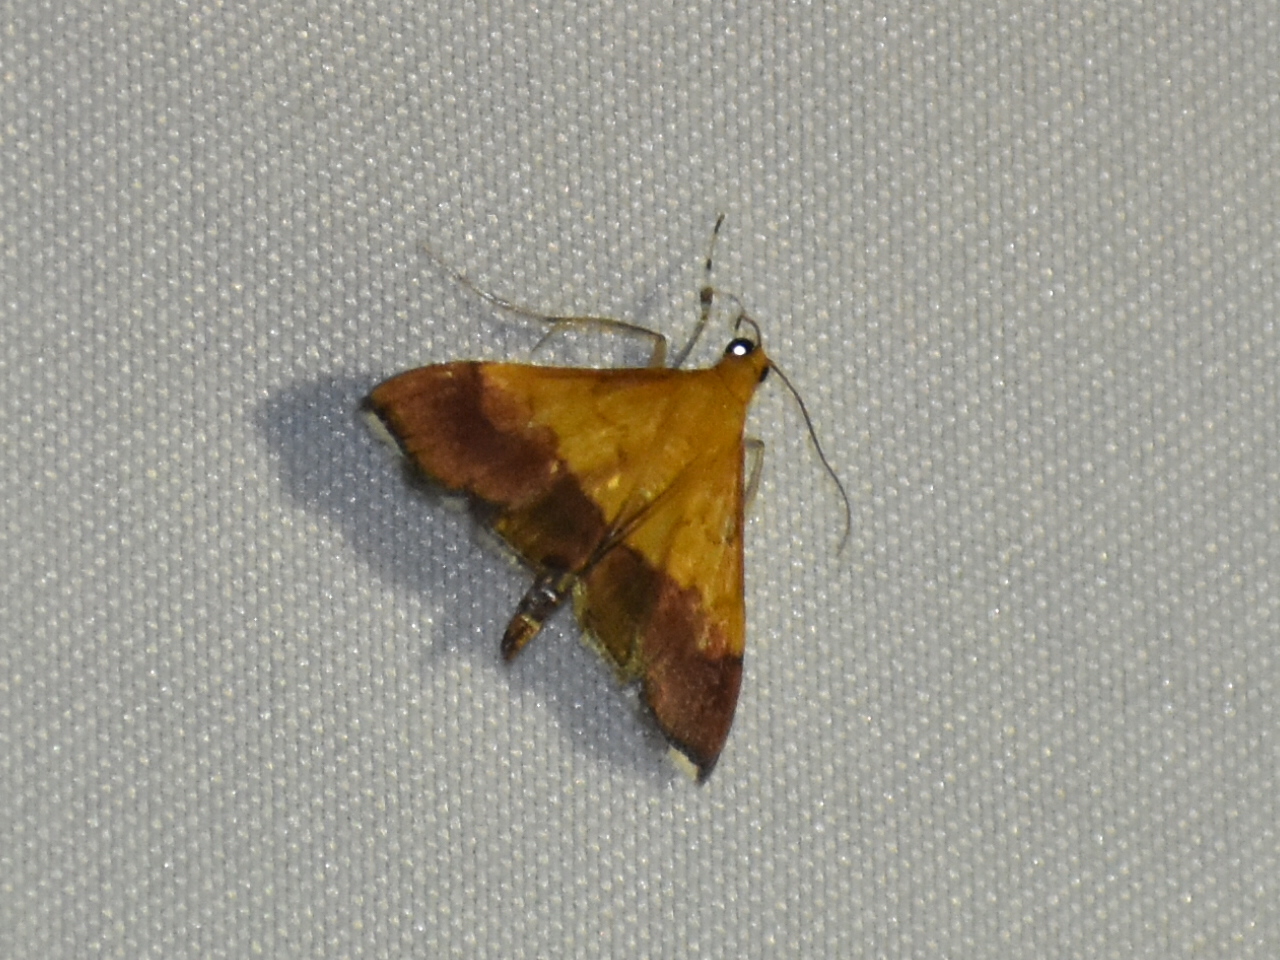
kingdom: Animalia
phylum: Arthropoda
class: Insecta
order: Lepidoptera
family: Crambidae
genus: Pyrausta
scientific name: Pyrausta bicoloralis
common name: Bicolored pyrausta moth
